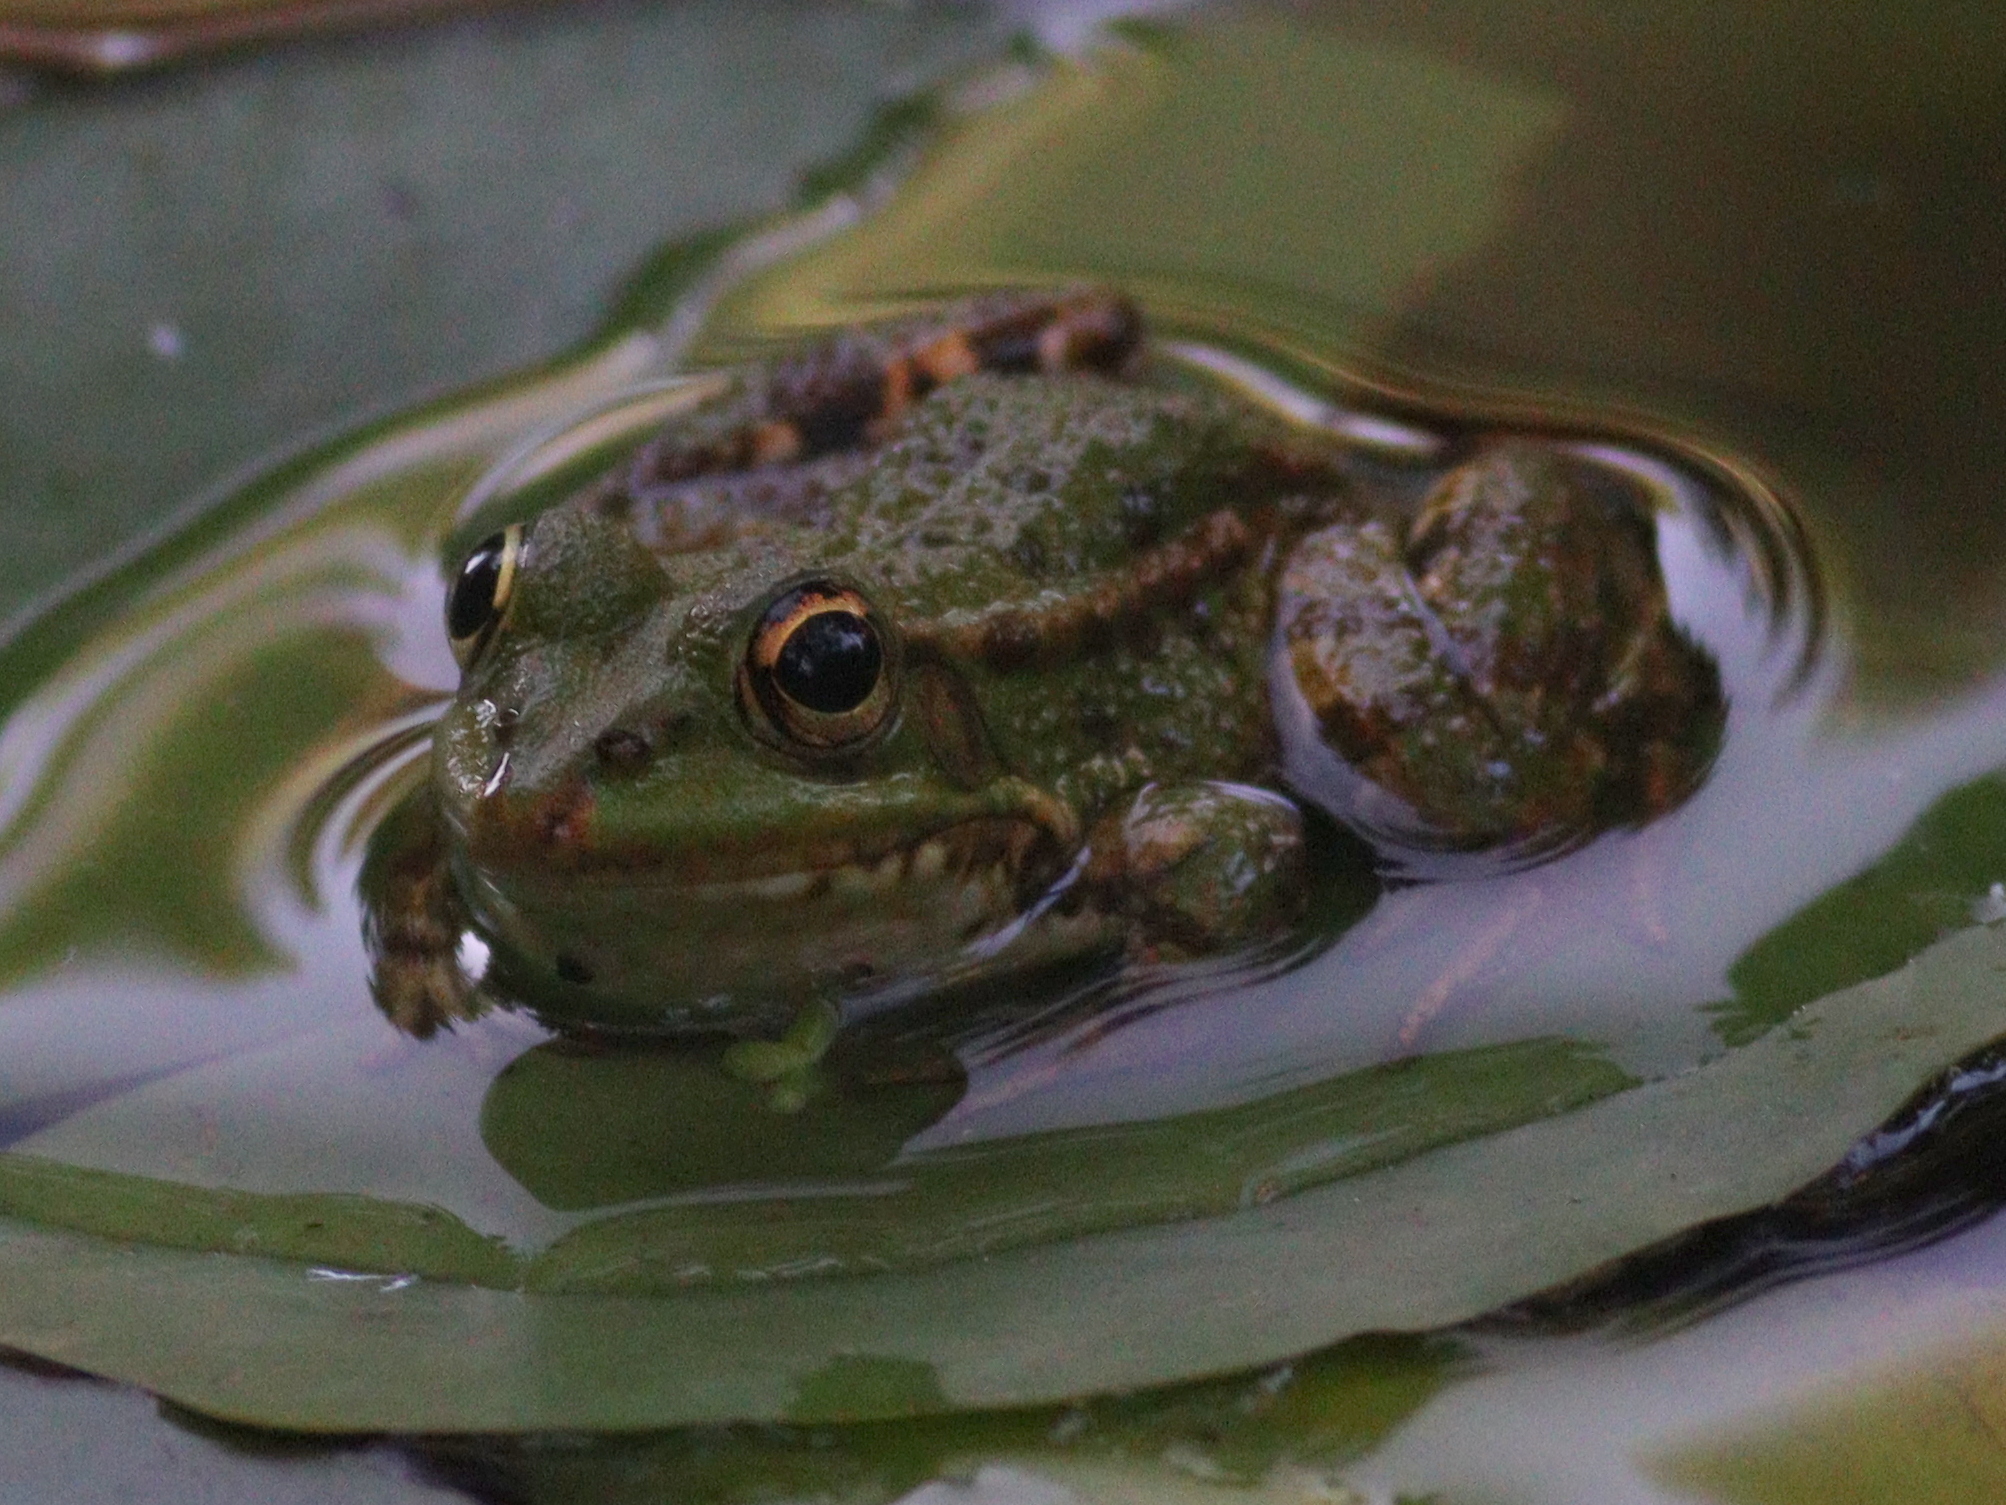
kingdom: Animalia
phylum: Chordata
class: Amphibia
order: Anura
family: Ranidae
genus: Pelophylax
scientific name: Pelophylax perezi
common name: Perez's frog
